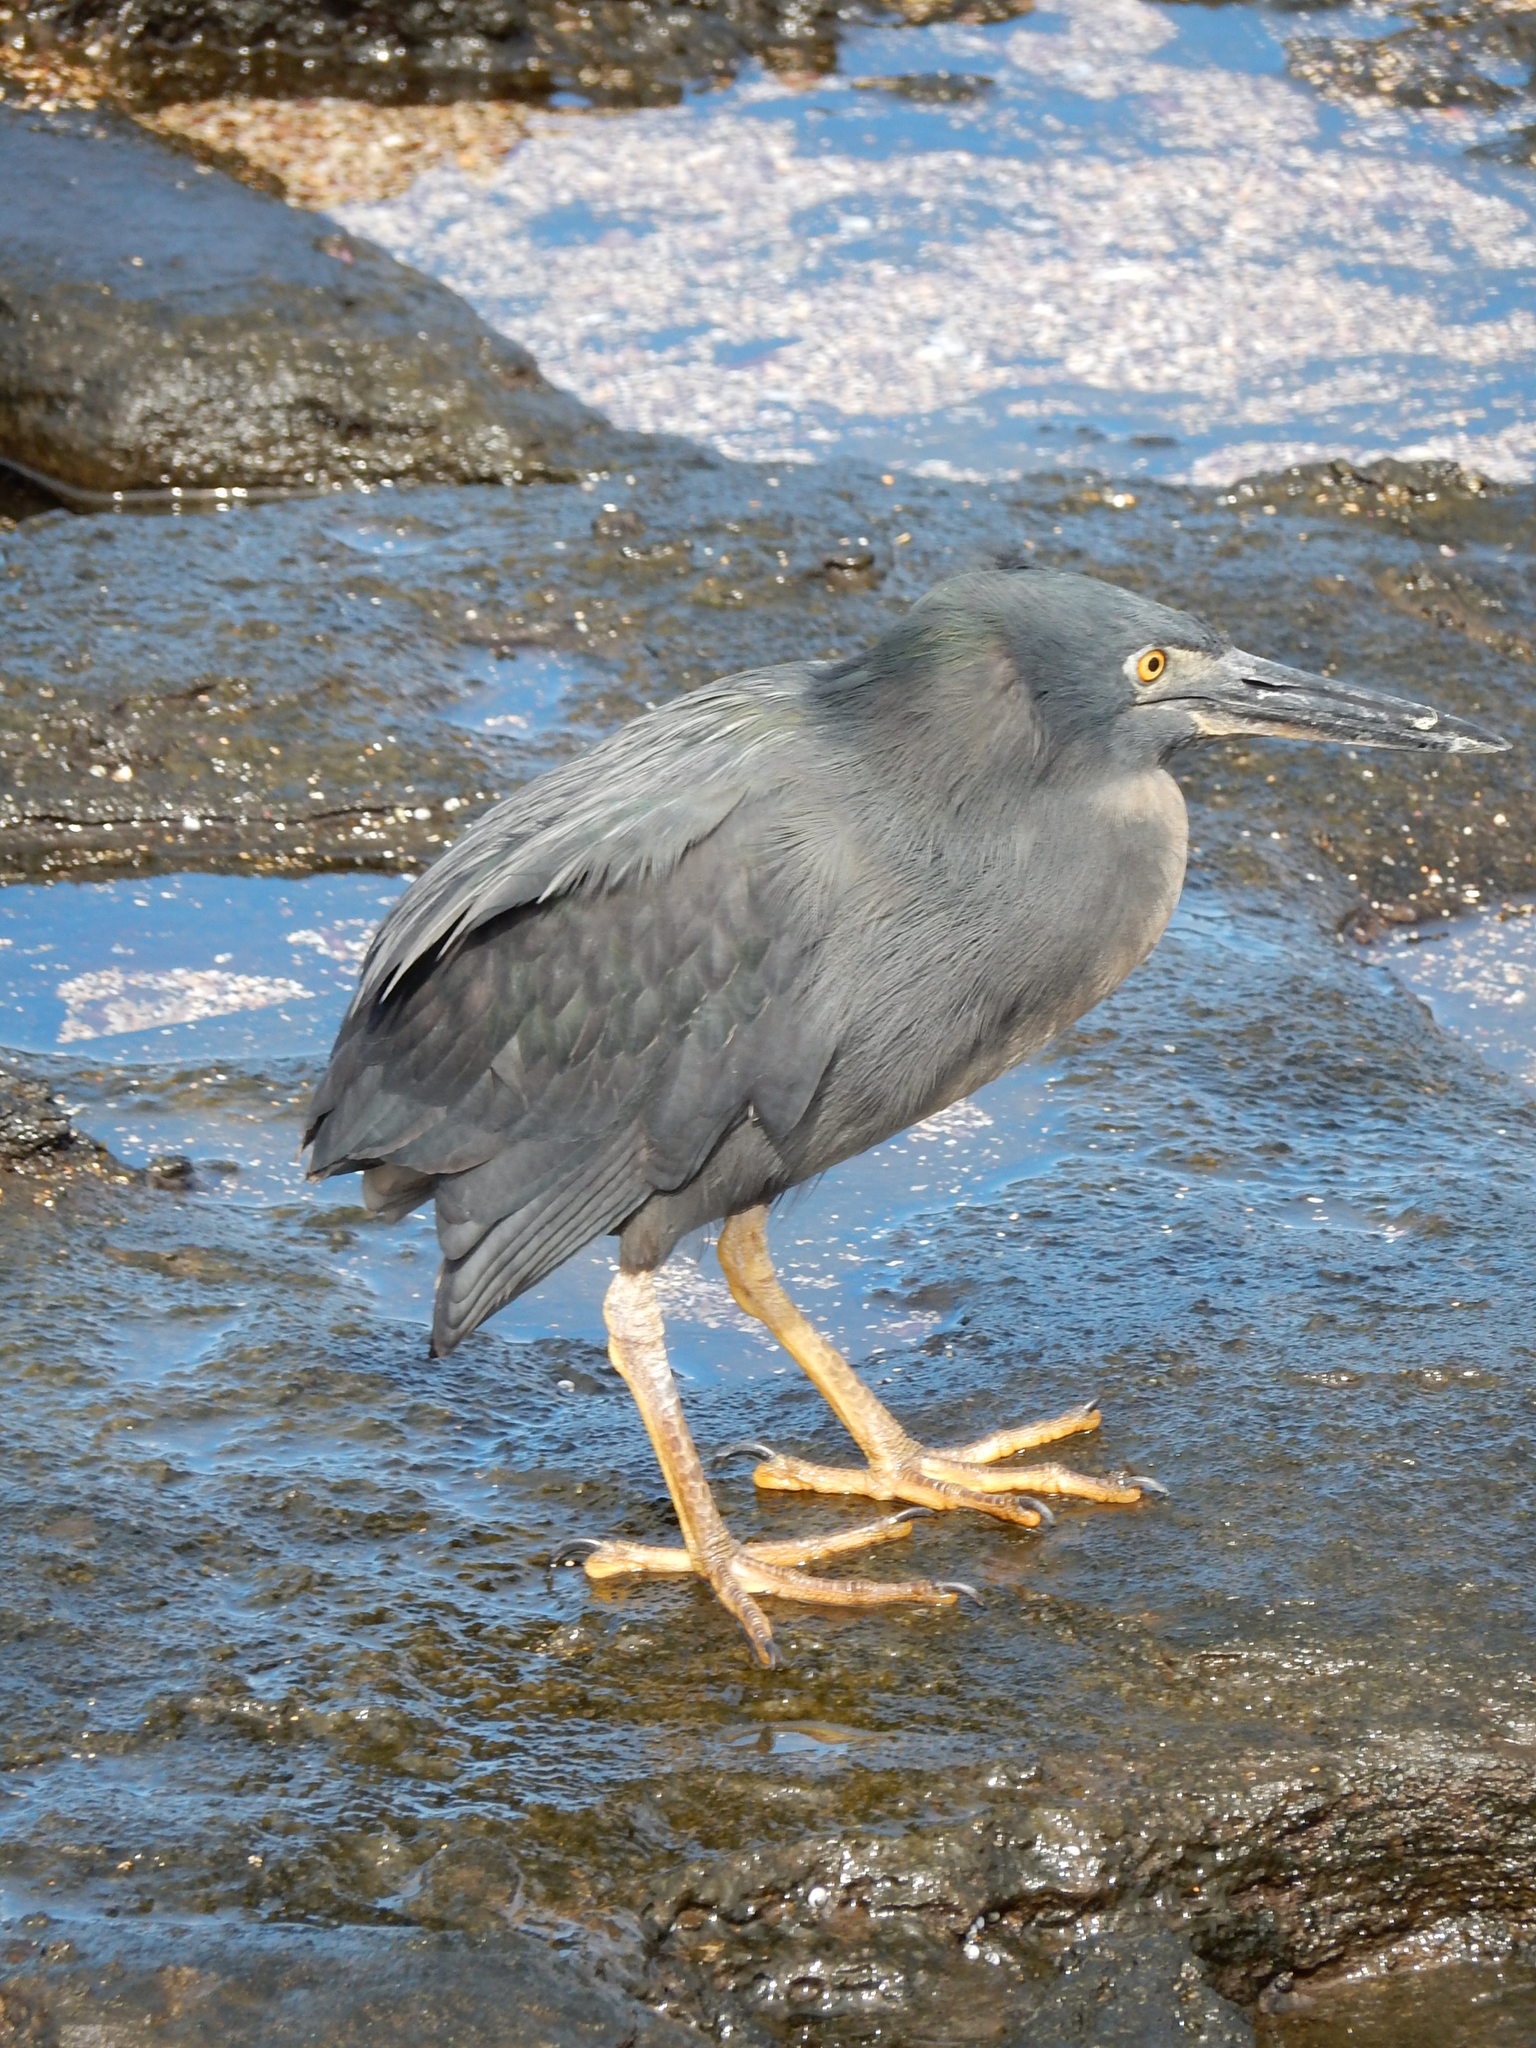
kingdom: Animalia
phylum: Chordata
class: Aves
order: Pelecaniformes
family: Ardeidae
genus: Butorides
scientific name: Butorides striata
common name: Striated heron
